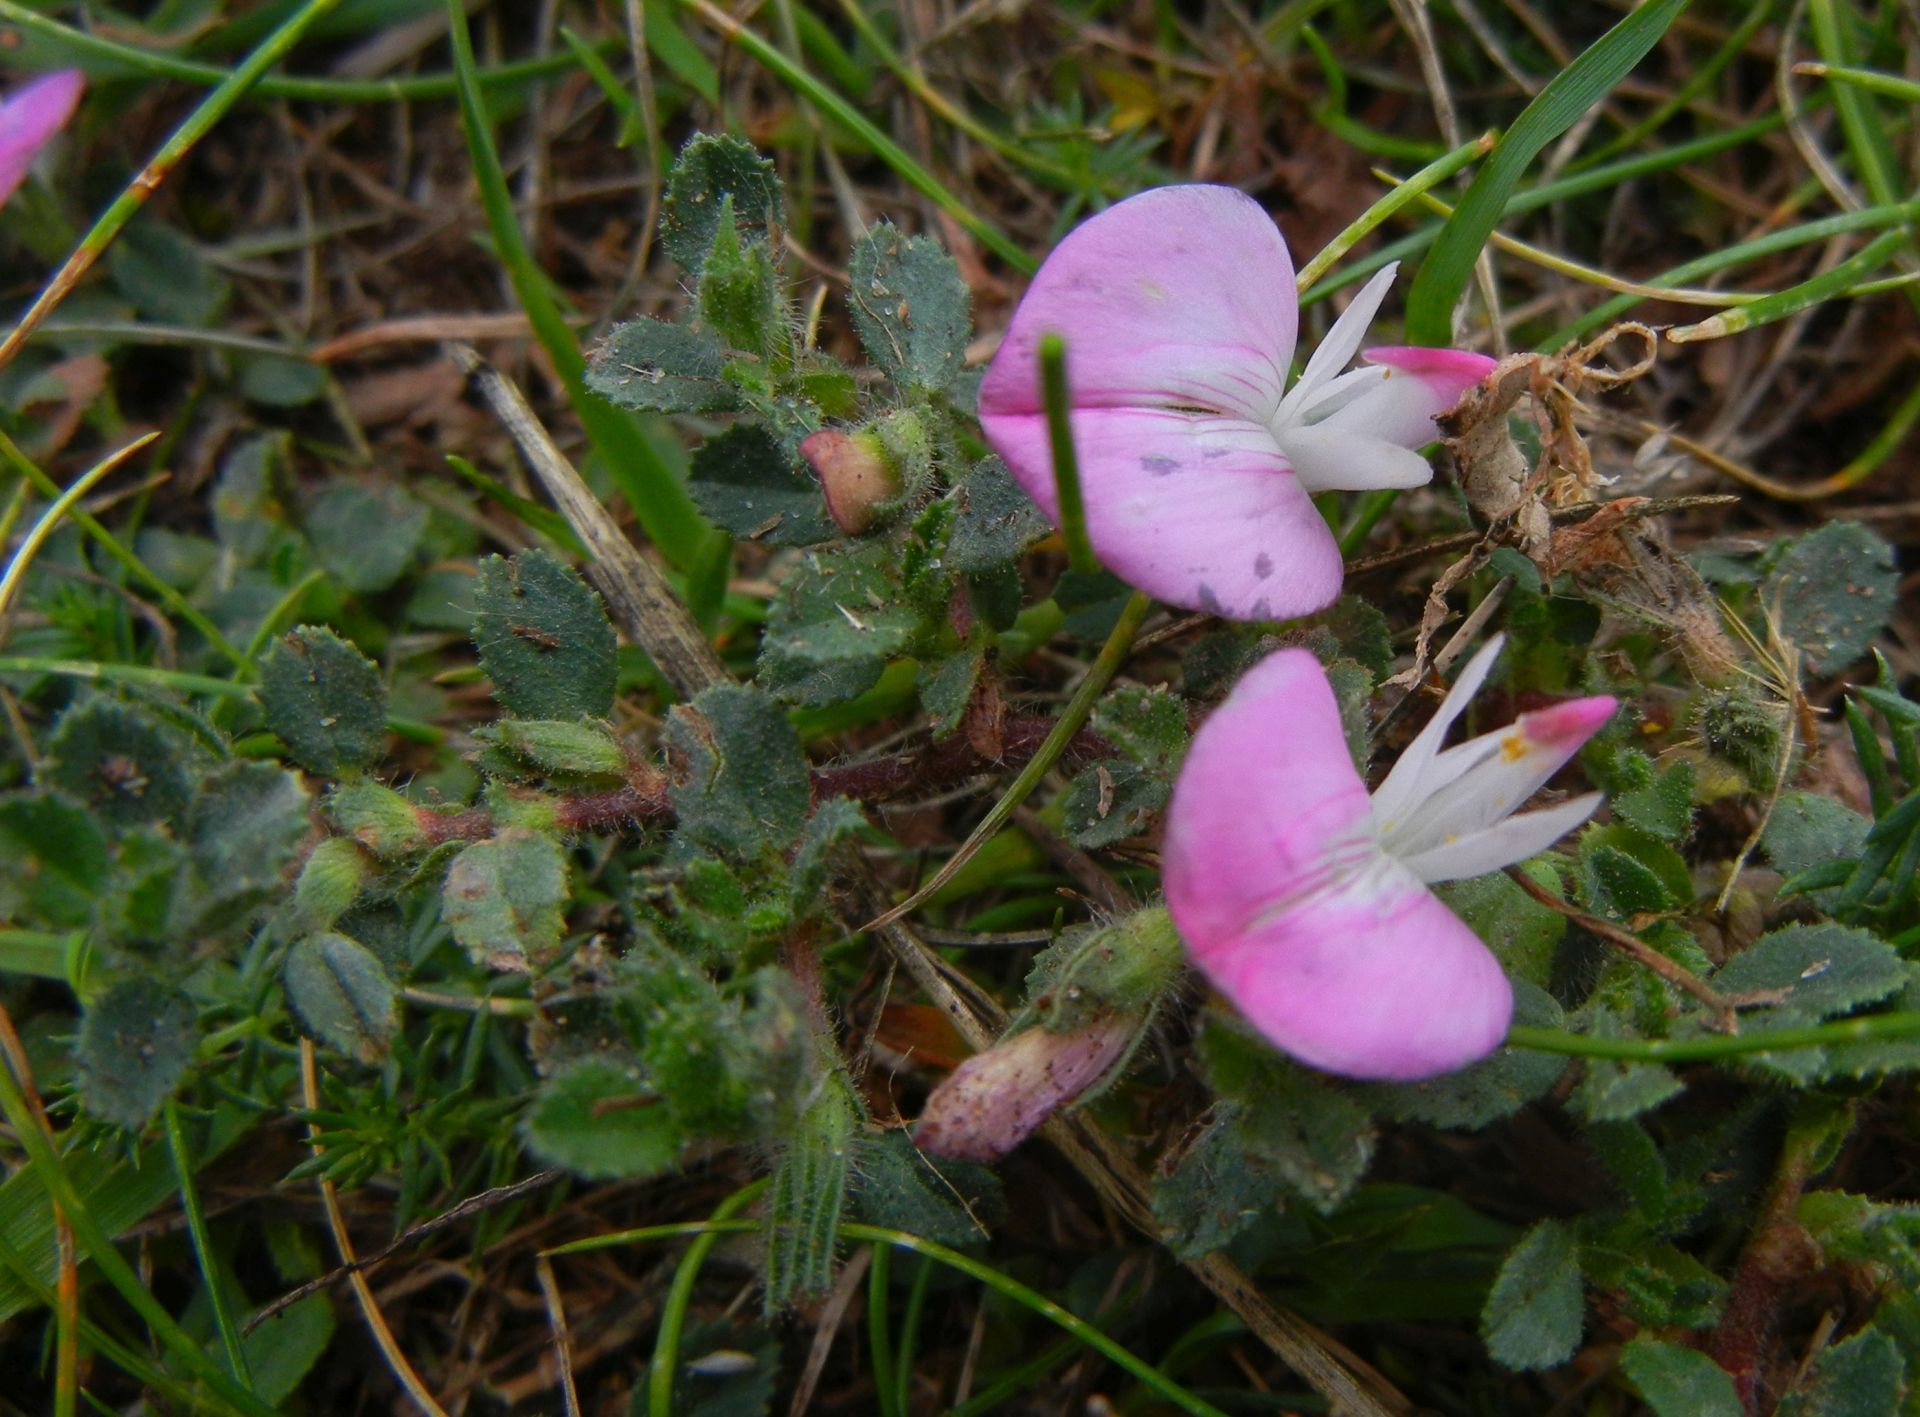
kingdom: Plantae
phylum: Tracheophyta
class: Magnoliopsida
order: Fabales
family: Fabaceae
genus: Ononis
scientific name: Ononis spinosa
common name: Spiny restharrow
